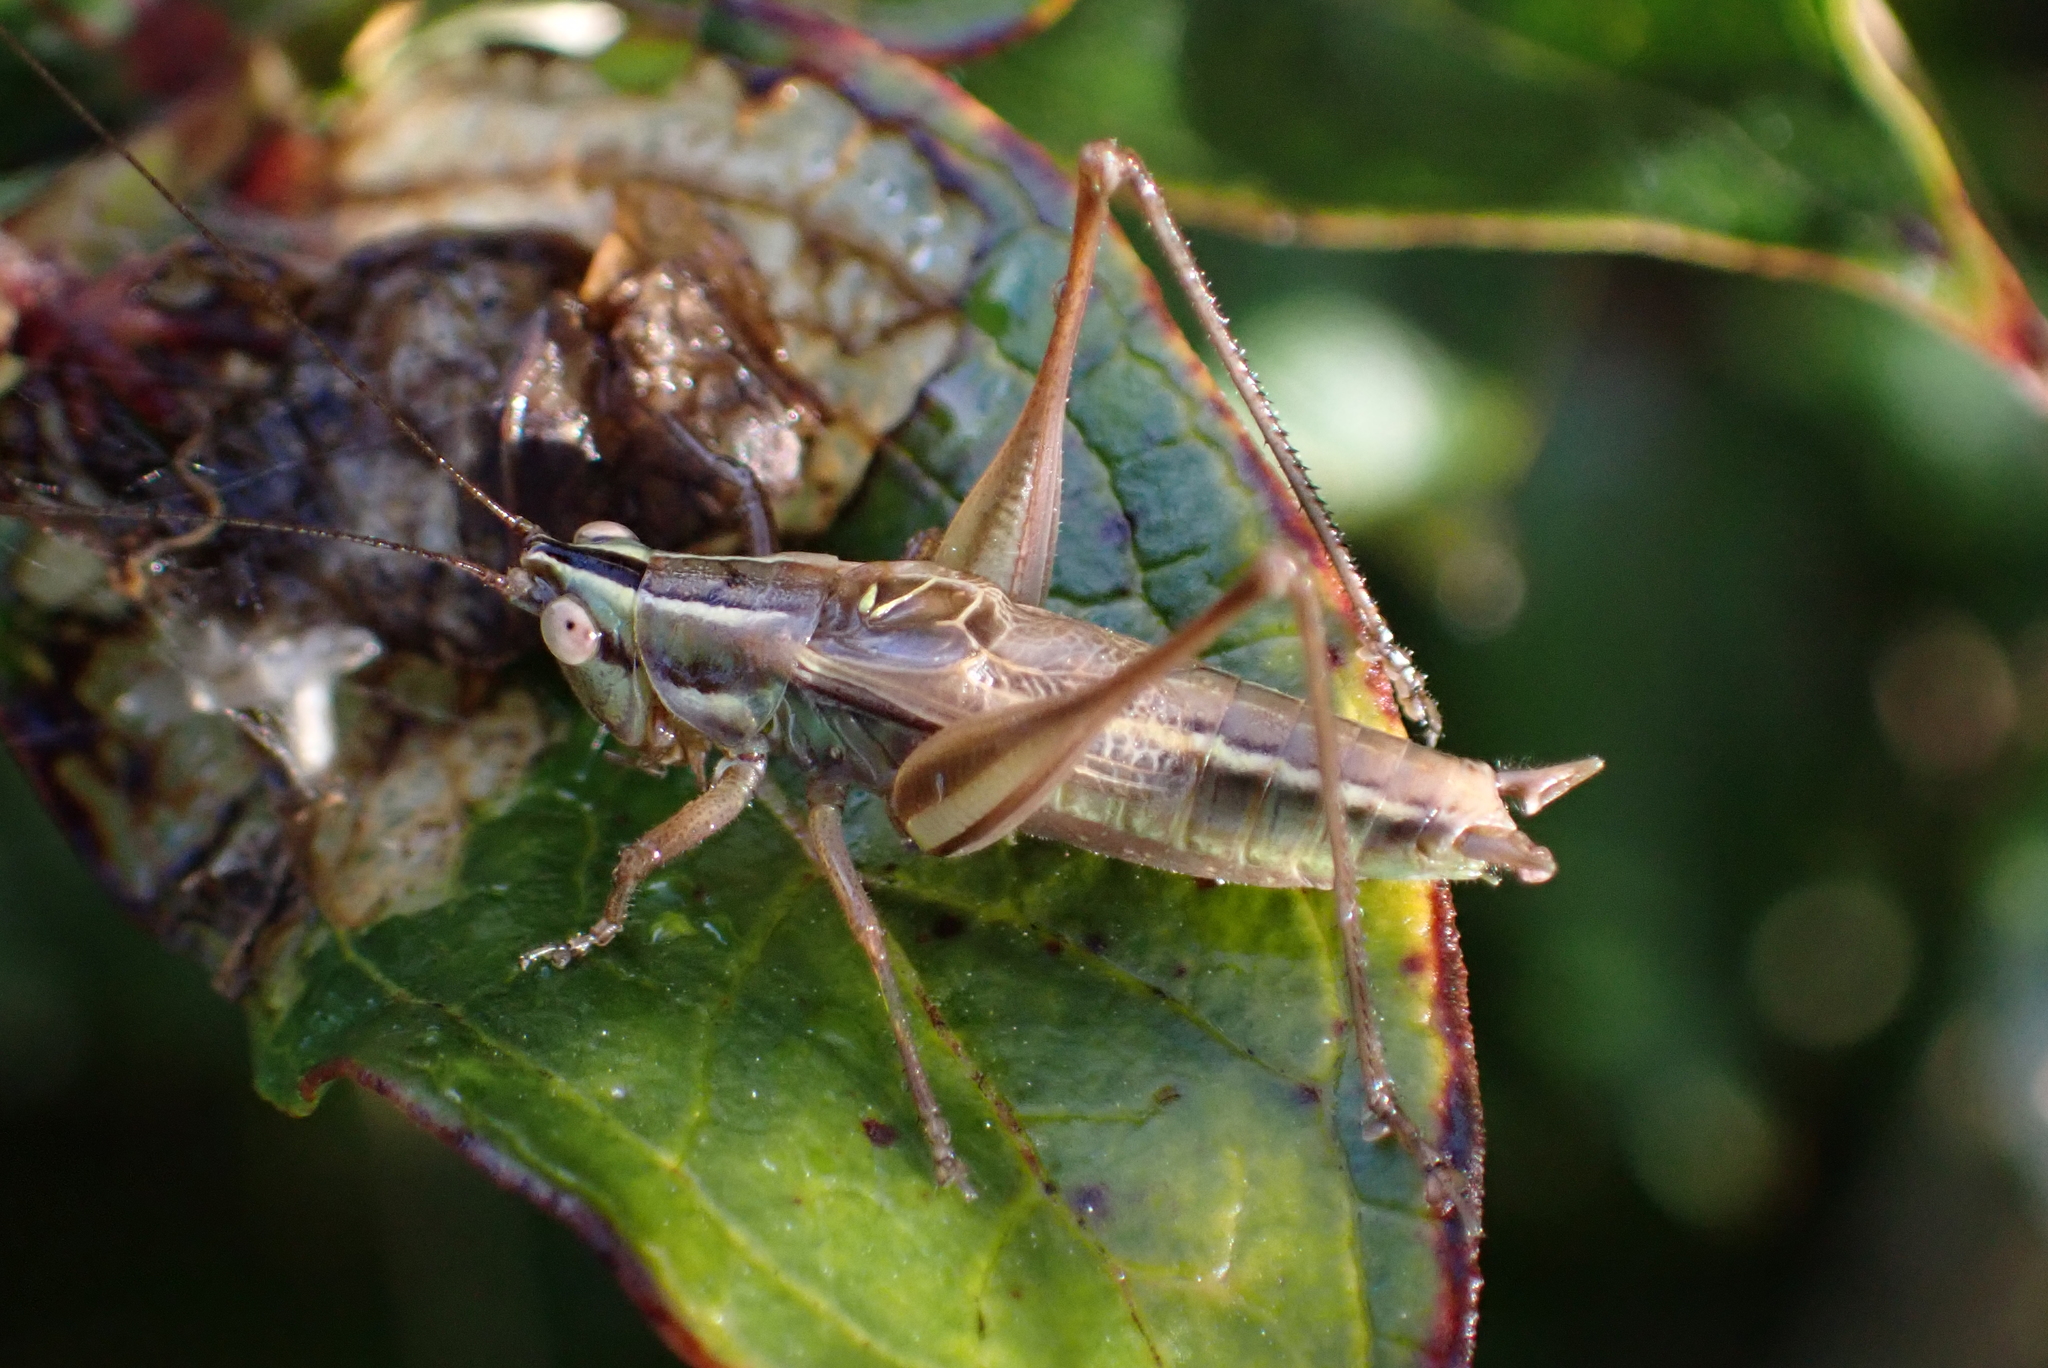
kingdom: Animalia
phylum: Arthropoda
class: Insecta
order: Orthoptera
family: Tettigoniidae
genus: Conocephalus
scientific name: Conocephalus bilineatus
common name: Small meadow katydid
